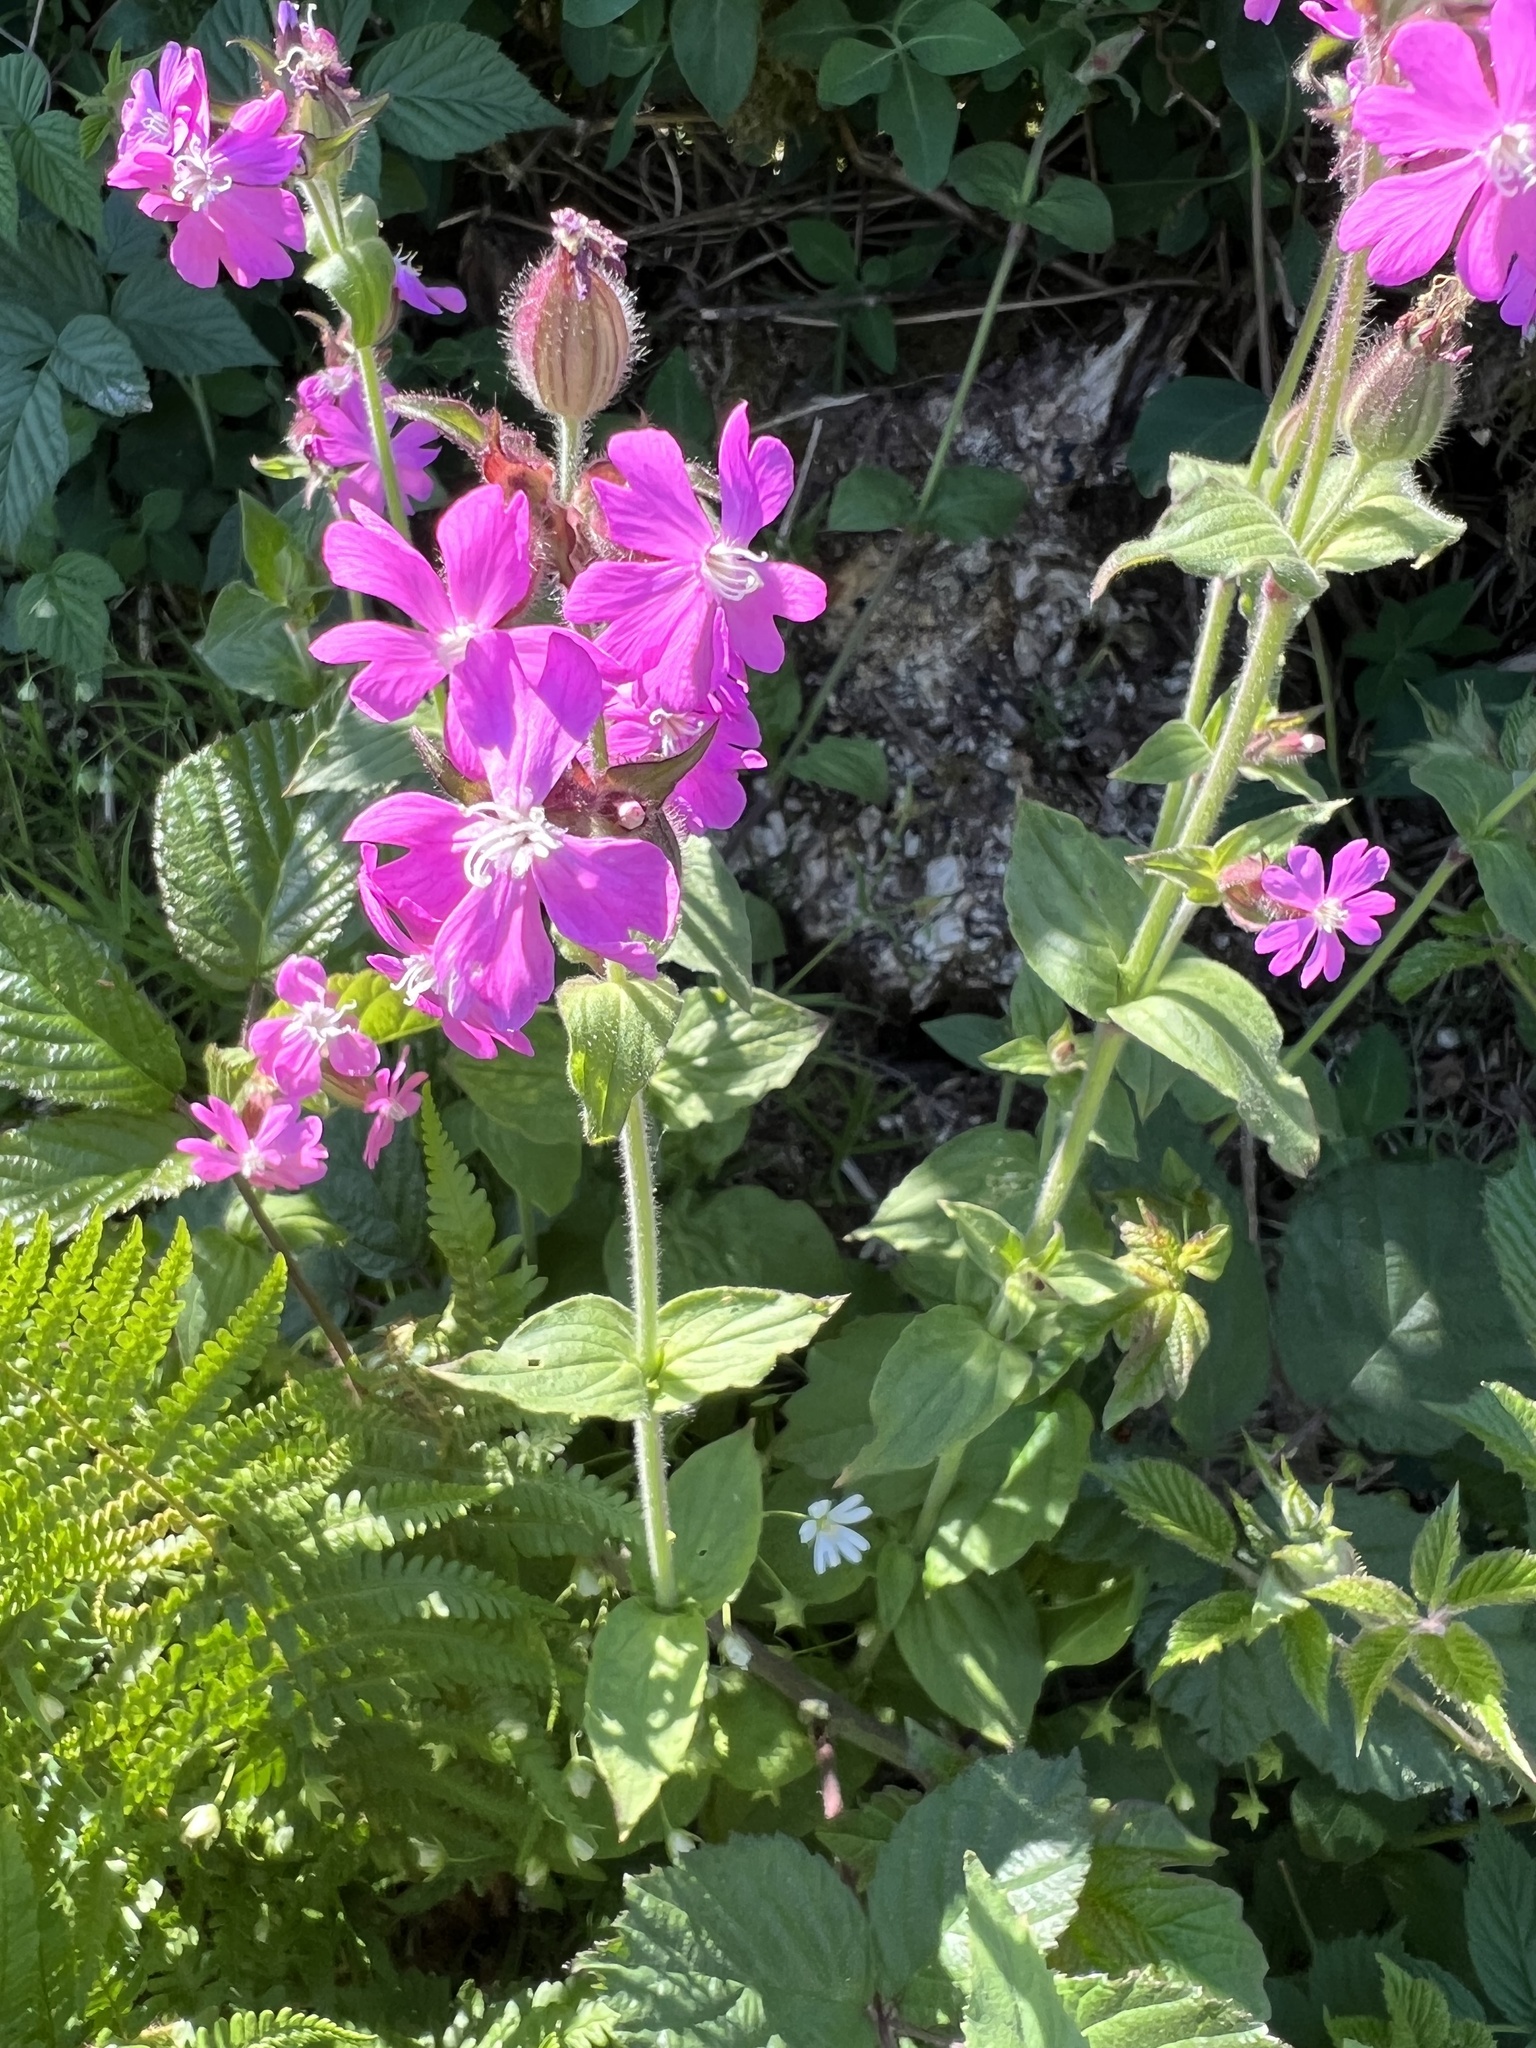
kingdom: Plantae
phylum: Tracheophyta
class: Magnoliopsida
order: Caryophyllales
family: Caryophyllaceae
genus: Silene
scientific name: Silene dioica
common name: Red campion
